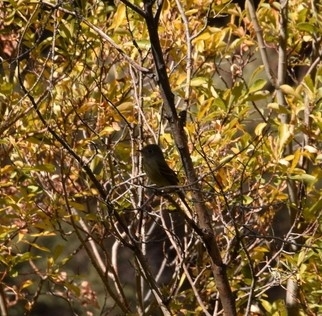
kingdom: Animalia
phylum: Chordata
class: Aves
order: Passeriformes
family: Tyrannidae
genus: Empidonax
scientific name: Empidonax
